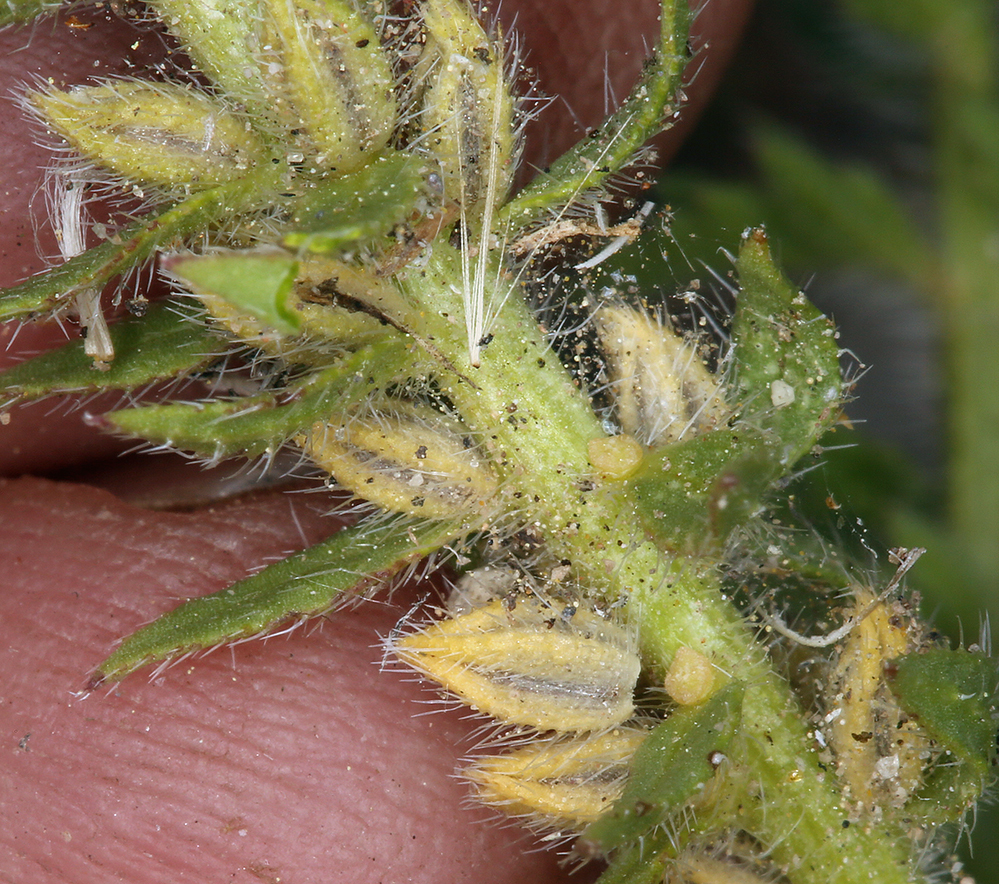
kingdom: Plantae
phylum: Tracheophyta
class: Magnoliopsida
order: Lamiales
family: Verbenaceae
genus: Verbena
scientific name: Verbena bracteata
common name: Bracted vervain
